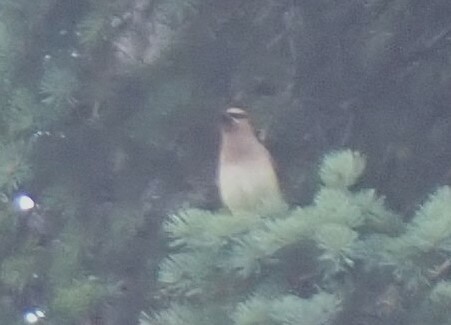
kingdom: Animalia
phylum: Chordata
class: Aves
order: Passeriformes
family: Bombycillidae
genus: Bombycilla
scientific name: Bombycilla cedrorum
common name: Cedar waxwing
